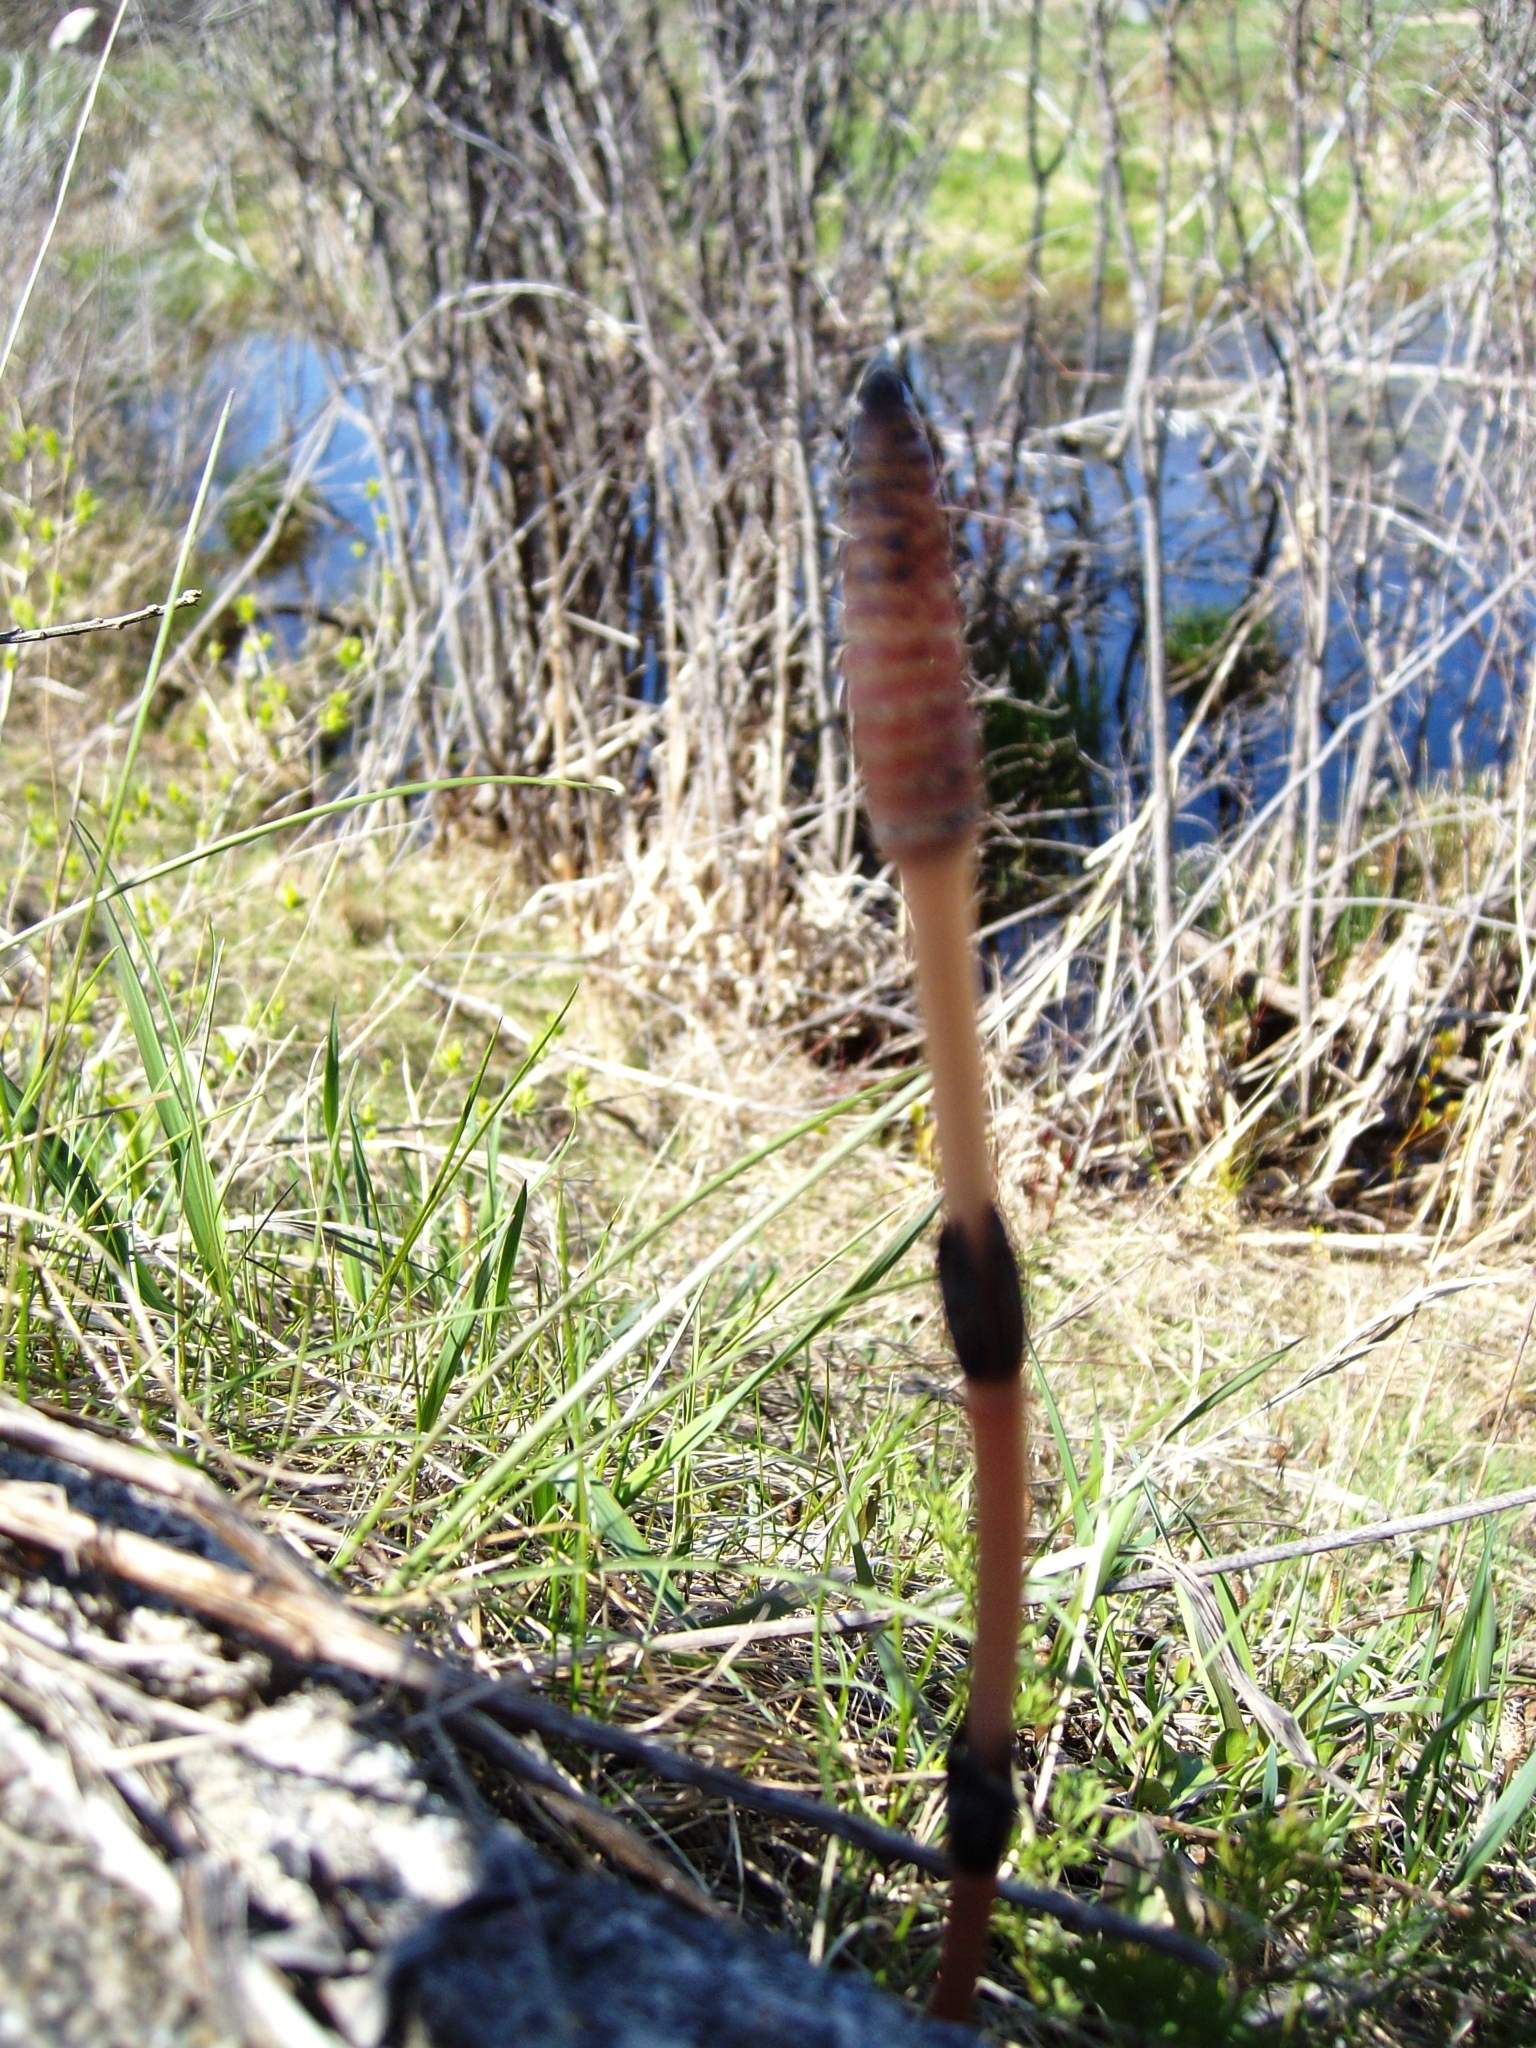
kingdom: Plantae
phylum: Tracheophyta
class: Polypodiopsida
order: Equisetales
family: Equisetaceae
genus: Equisetum
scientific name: Equisetum arvense
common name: Field horsetail
